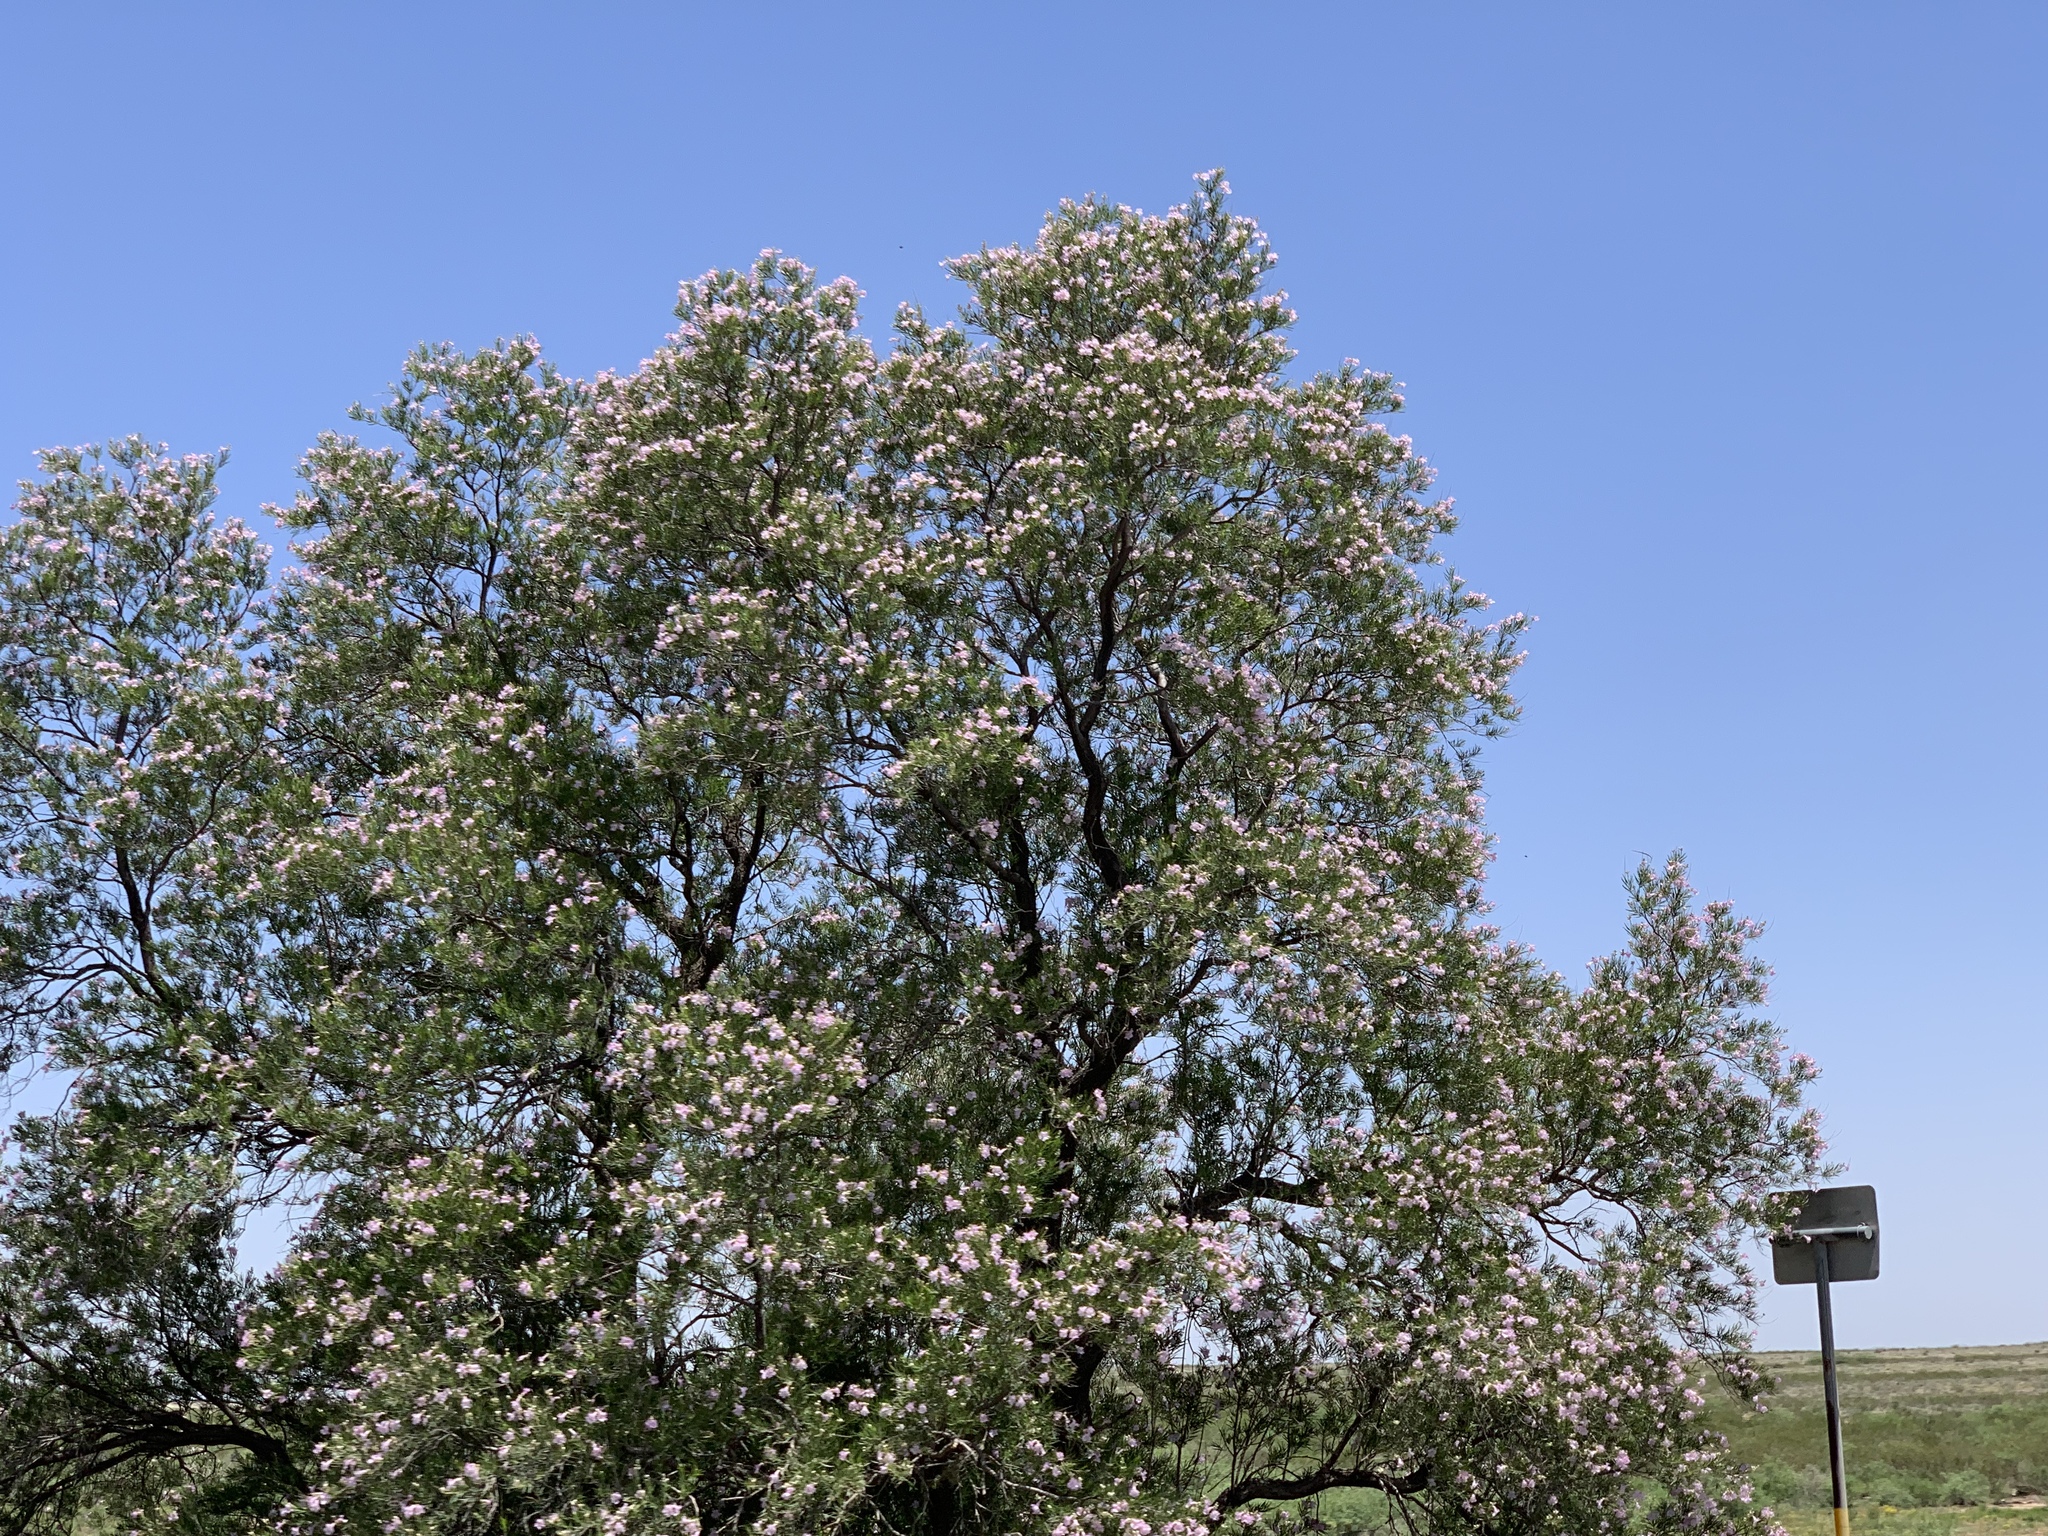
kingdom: Plantae
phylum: Tracheophyta
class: Magnoliopsida
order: Lamiales
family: Bignoniaceae
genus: Chilopsis
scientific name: Chilopsis linearis
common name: Desert-willow
